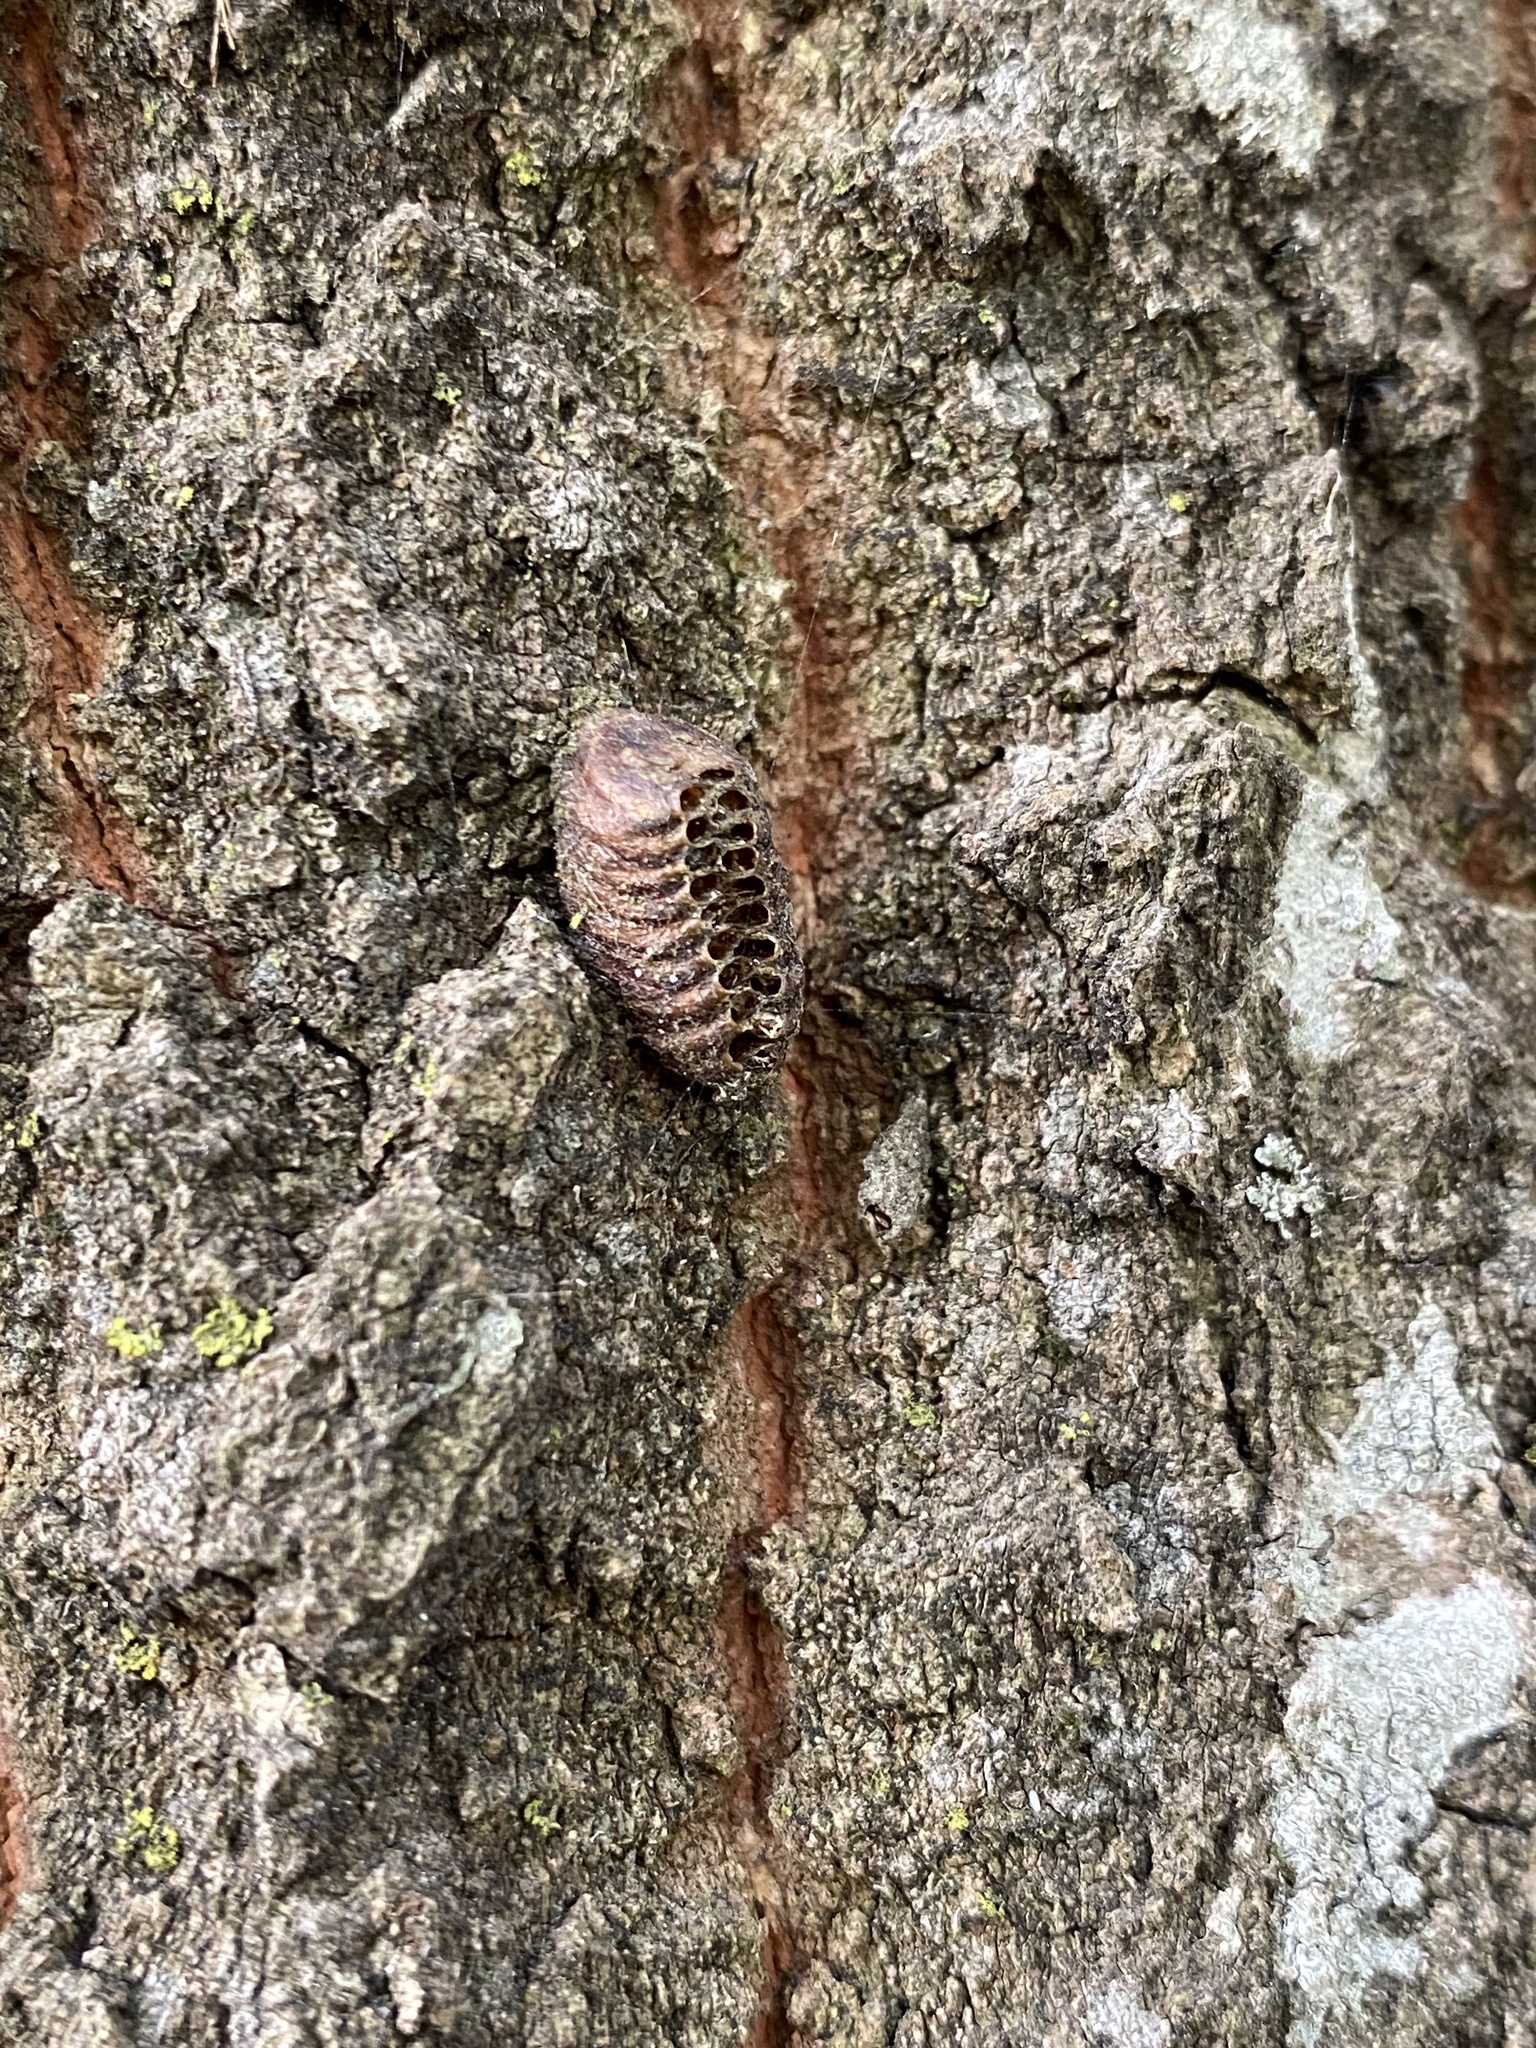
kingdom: Animalia
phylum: Arthropoda
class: Insecta
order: Mantodea
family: Mantidae
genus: Orthodera
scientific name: Orthodera novaezealandiae
